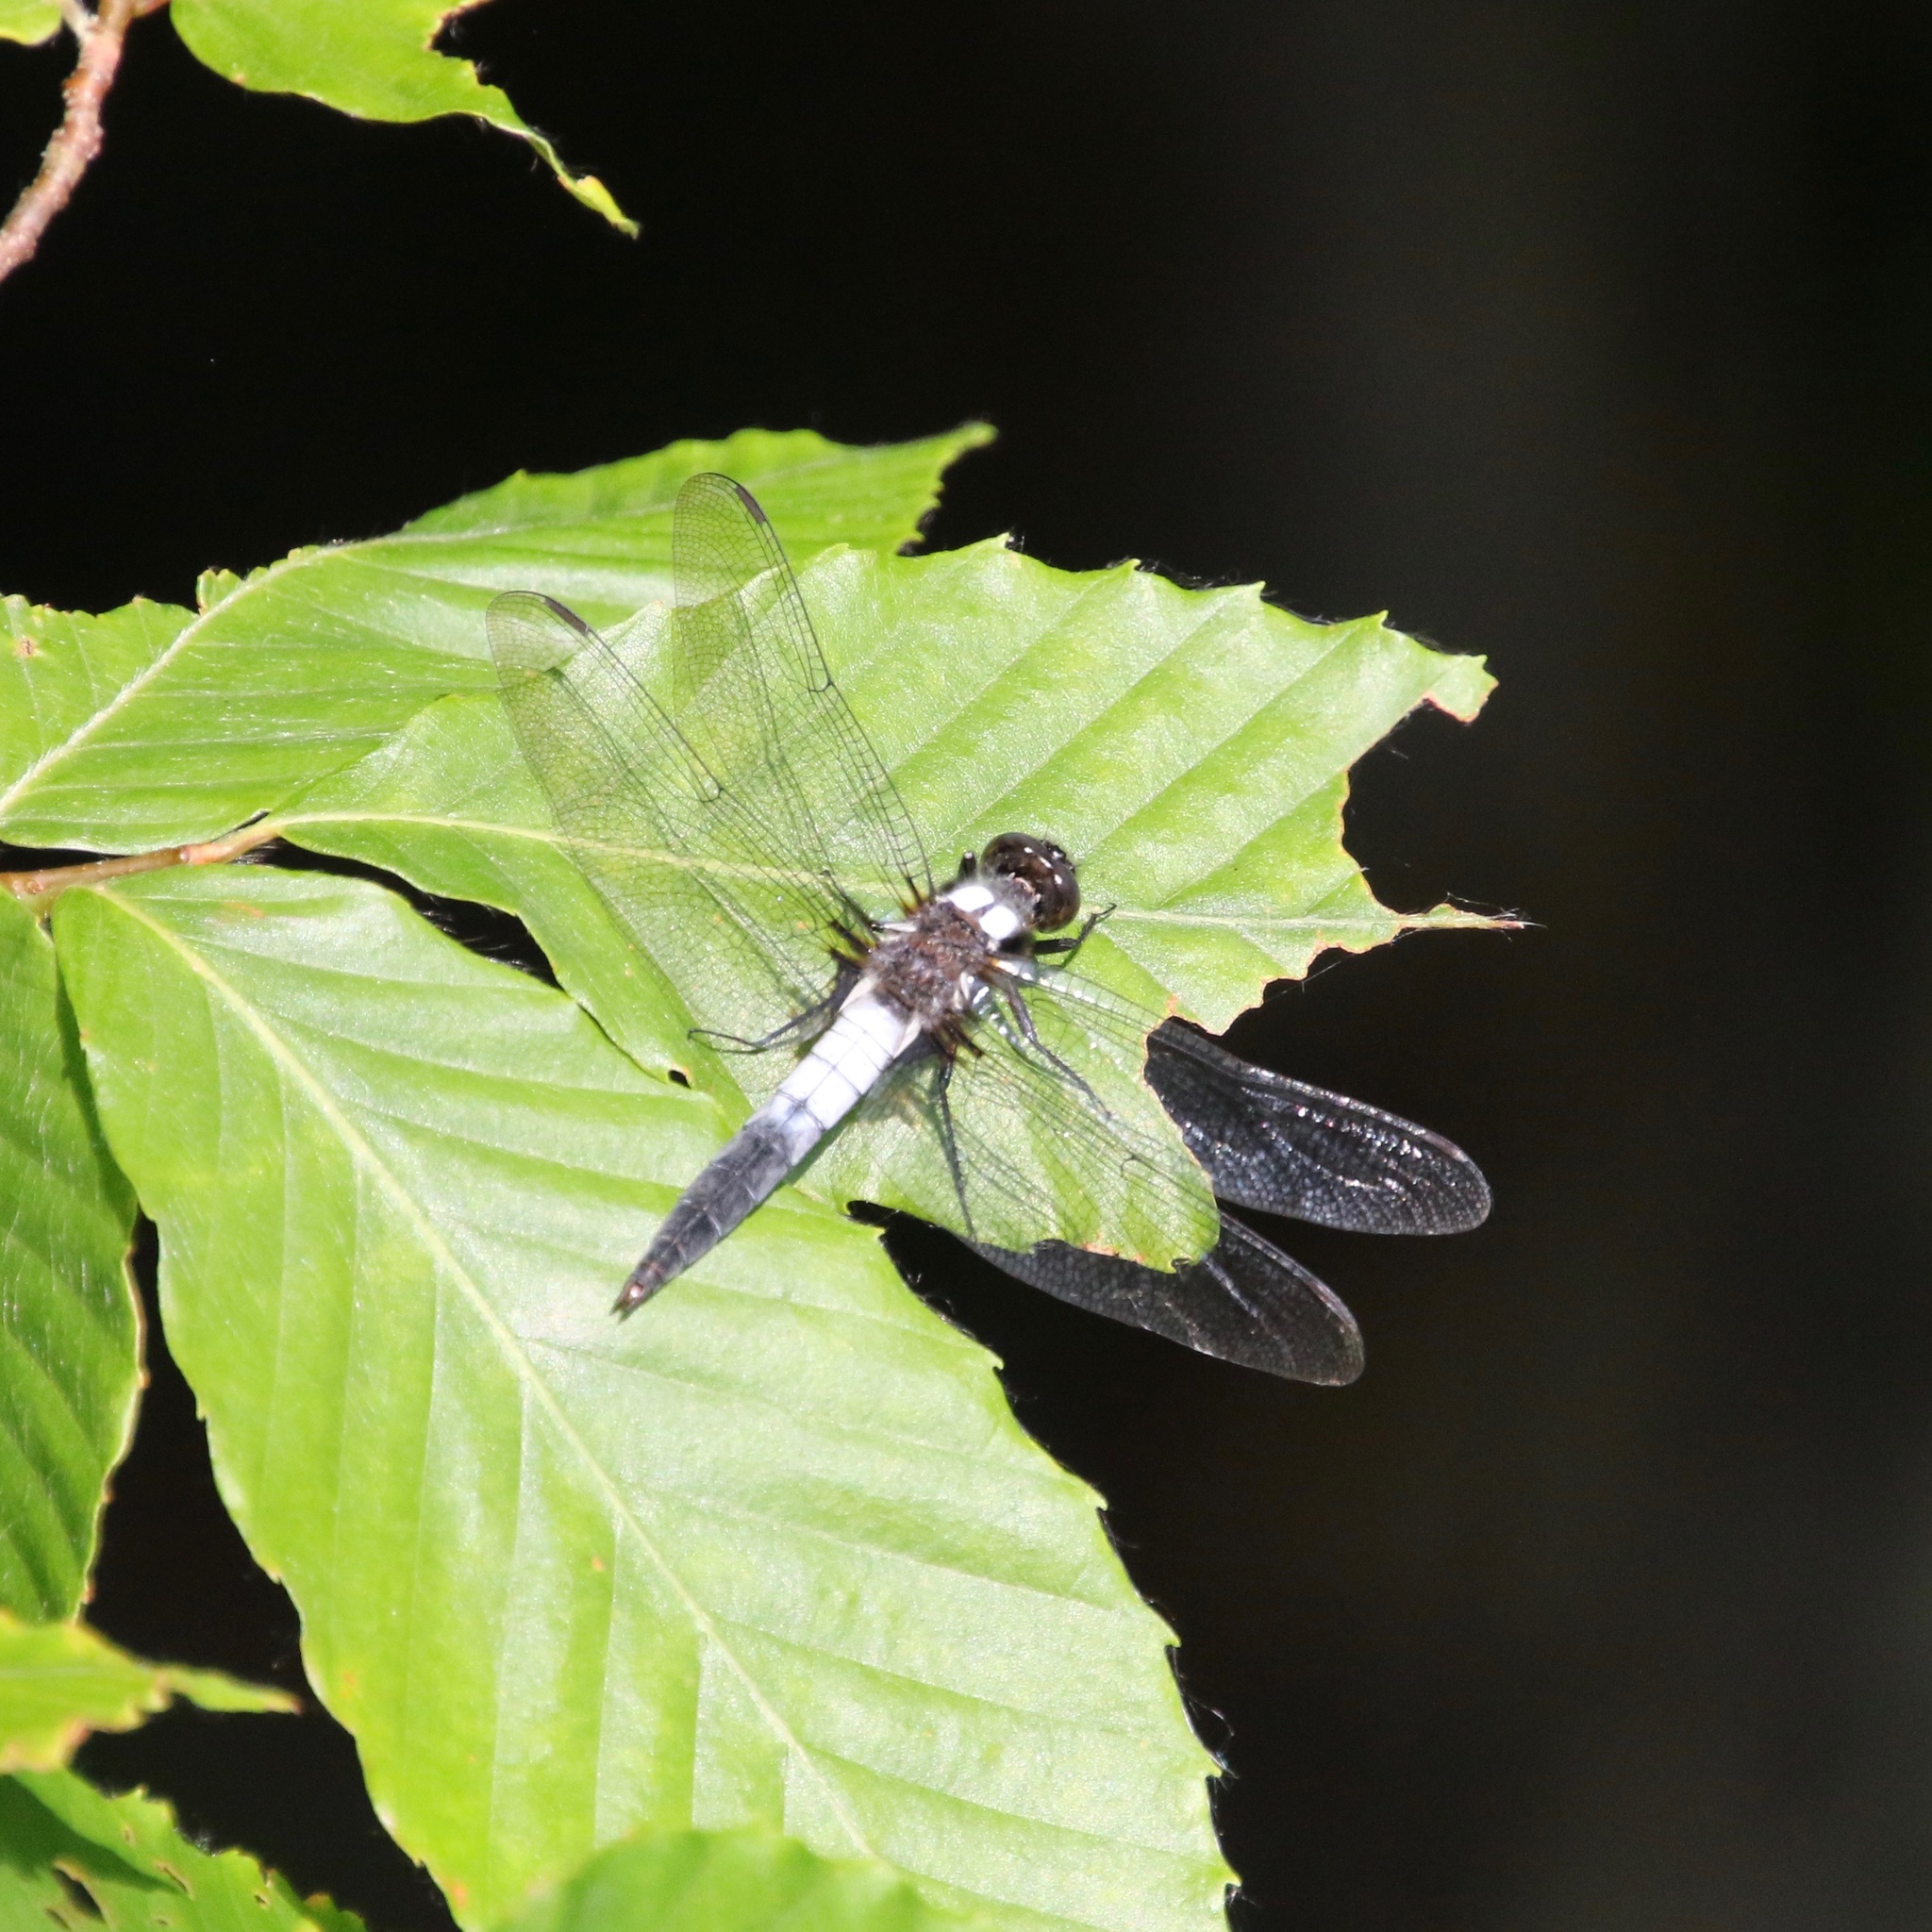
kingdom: Animalia
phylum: Arthropoda
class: Insecta
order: Odonata
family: Libellulidae
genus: Ladona
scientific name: Ladona julia
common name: Chalk-fronted corporal
